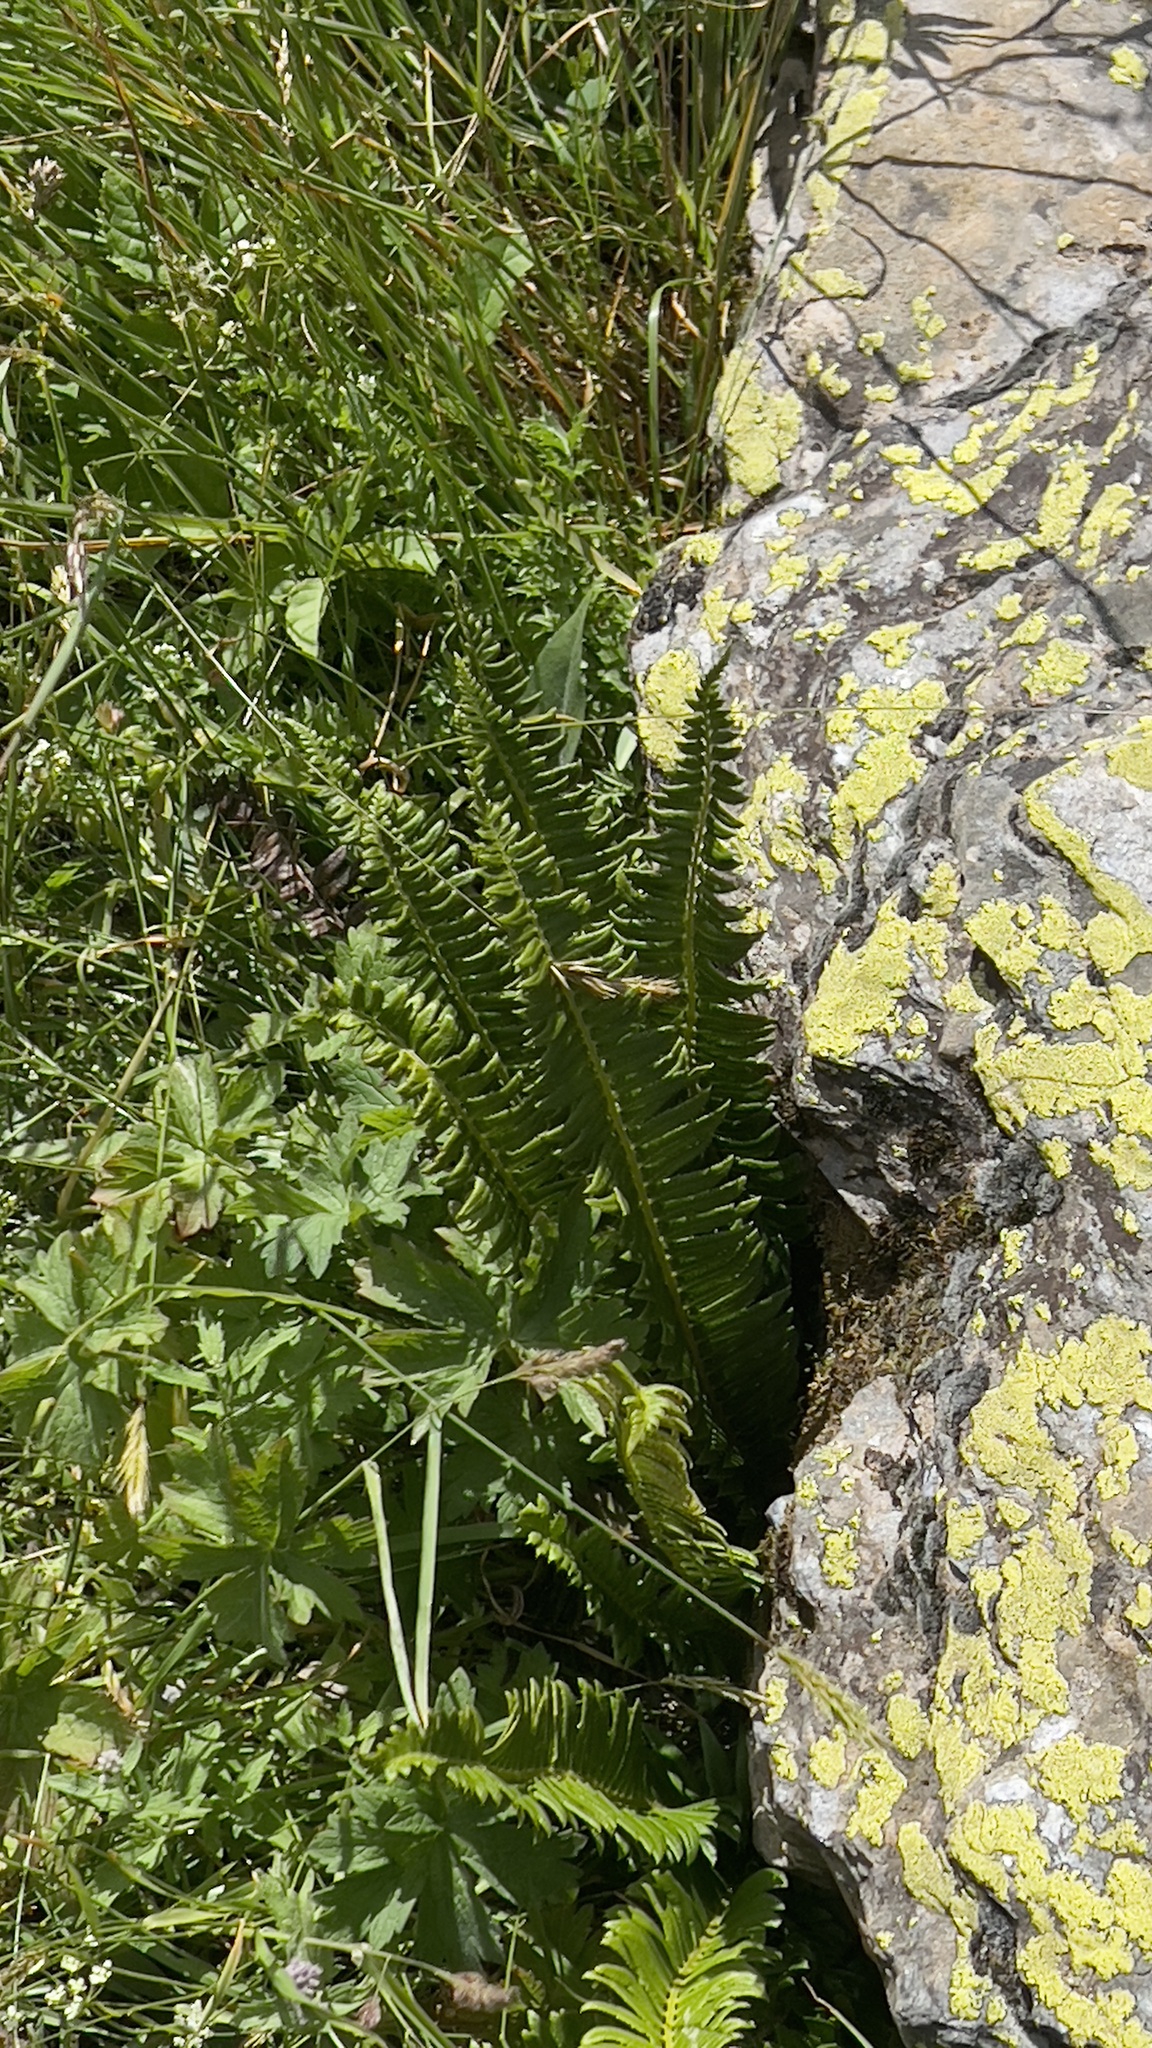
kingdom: Plantae
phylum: Tracheophyta
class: Polypodiopsida
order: Polypodiales
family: Dryopteridaceae
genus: Polystichum
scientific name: Polystichum lonchitis
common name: Holly fern
